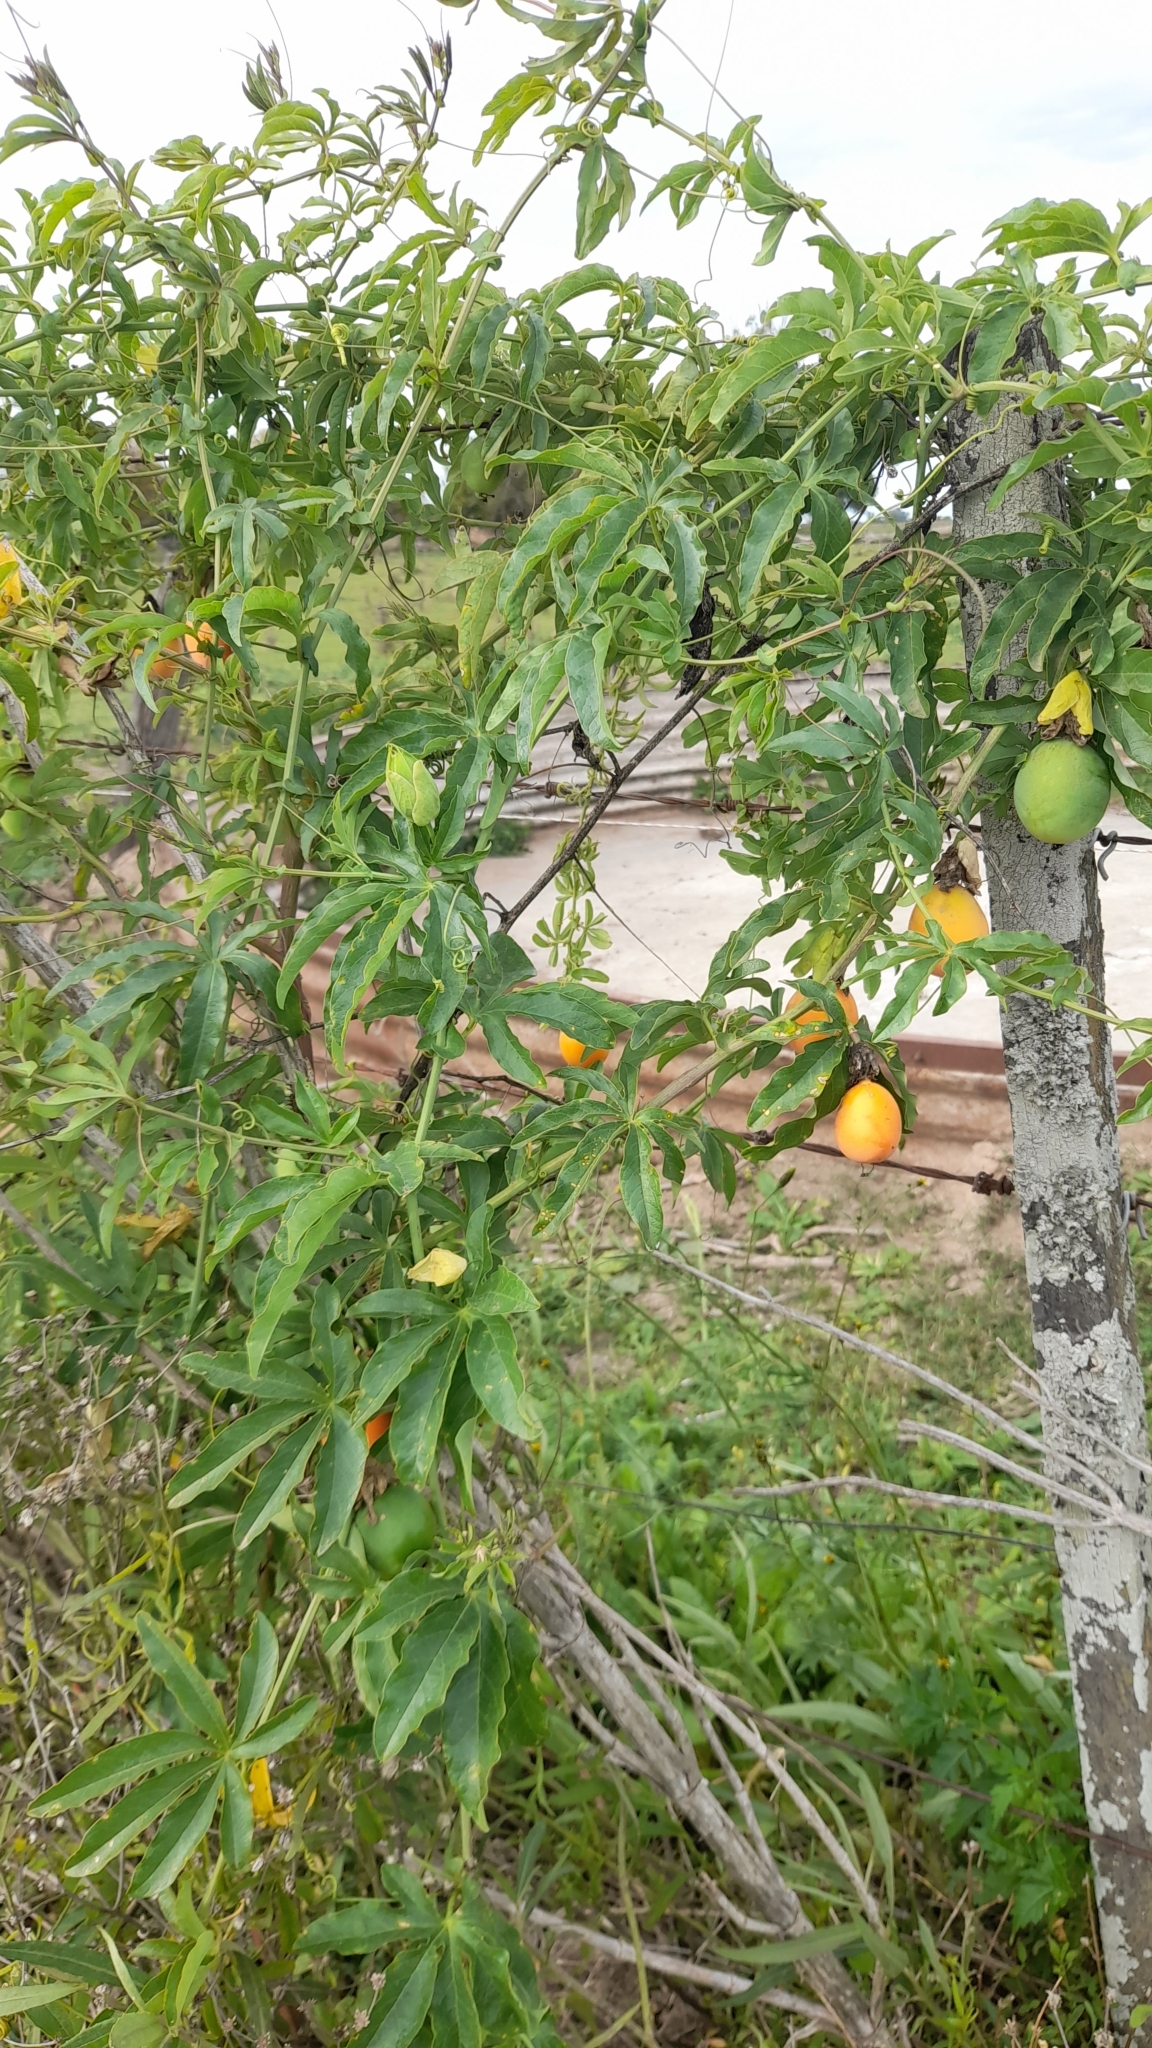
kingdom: Plantae
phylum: Tracheophyta
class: Magnoliopsida
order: Malpighiales
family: Passifloraceae
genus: Passiflora
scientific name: Passiflora caerulea
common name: Blue passionflower
